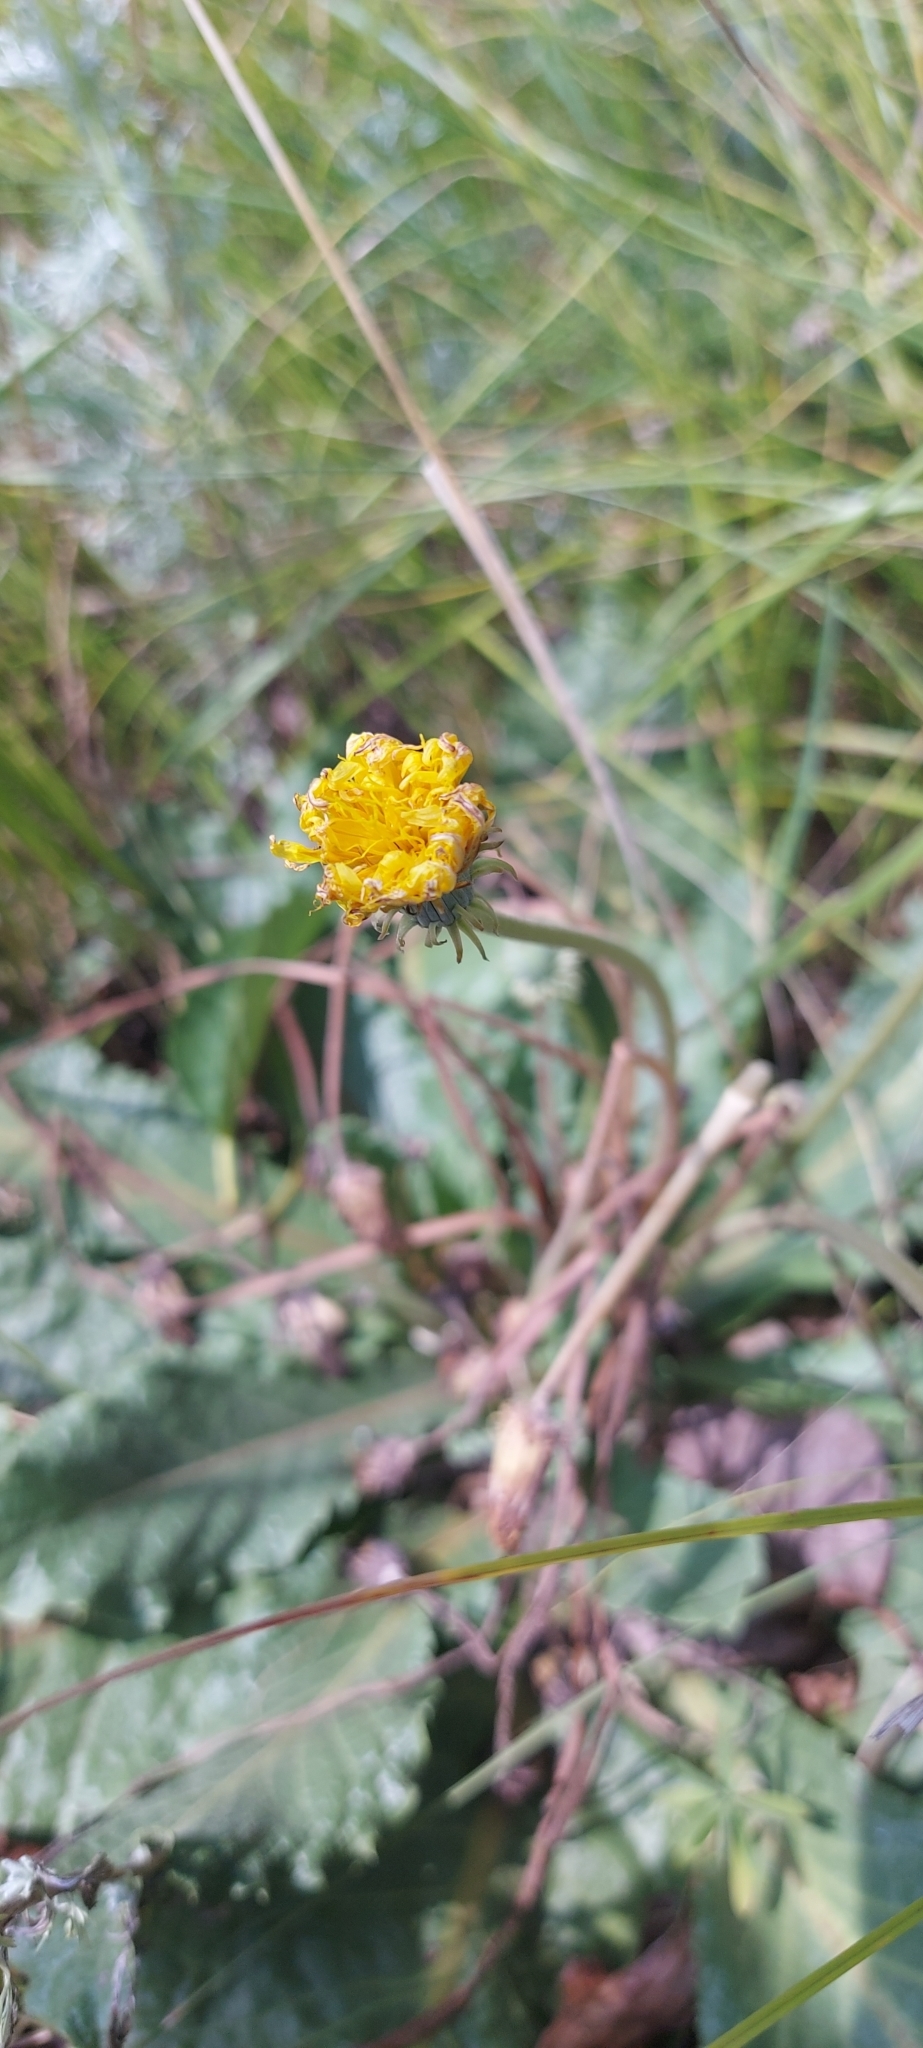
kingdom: Plantae
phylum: Tracheophyta
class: Magnoliopsida
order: Asterales
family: Asteraceae
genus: Taraxacum
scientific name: Taraxacum serotinum
